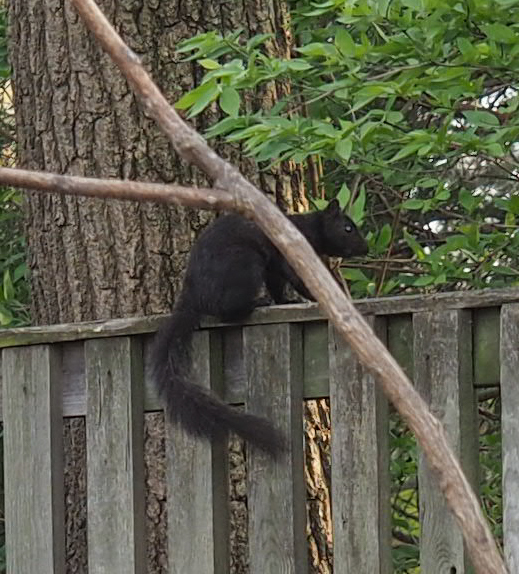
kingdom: Animalia
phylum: Chordata
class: Mammalia
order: Rodentia
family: Sciuridae
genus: Sciurus
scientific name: Sciurus carolinensis
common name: Eastern gray squirrel
